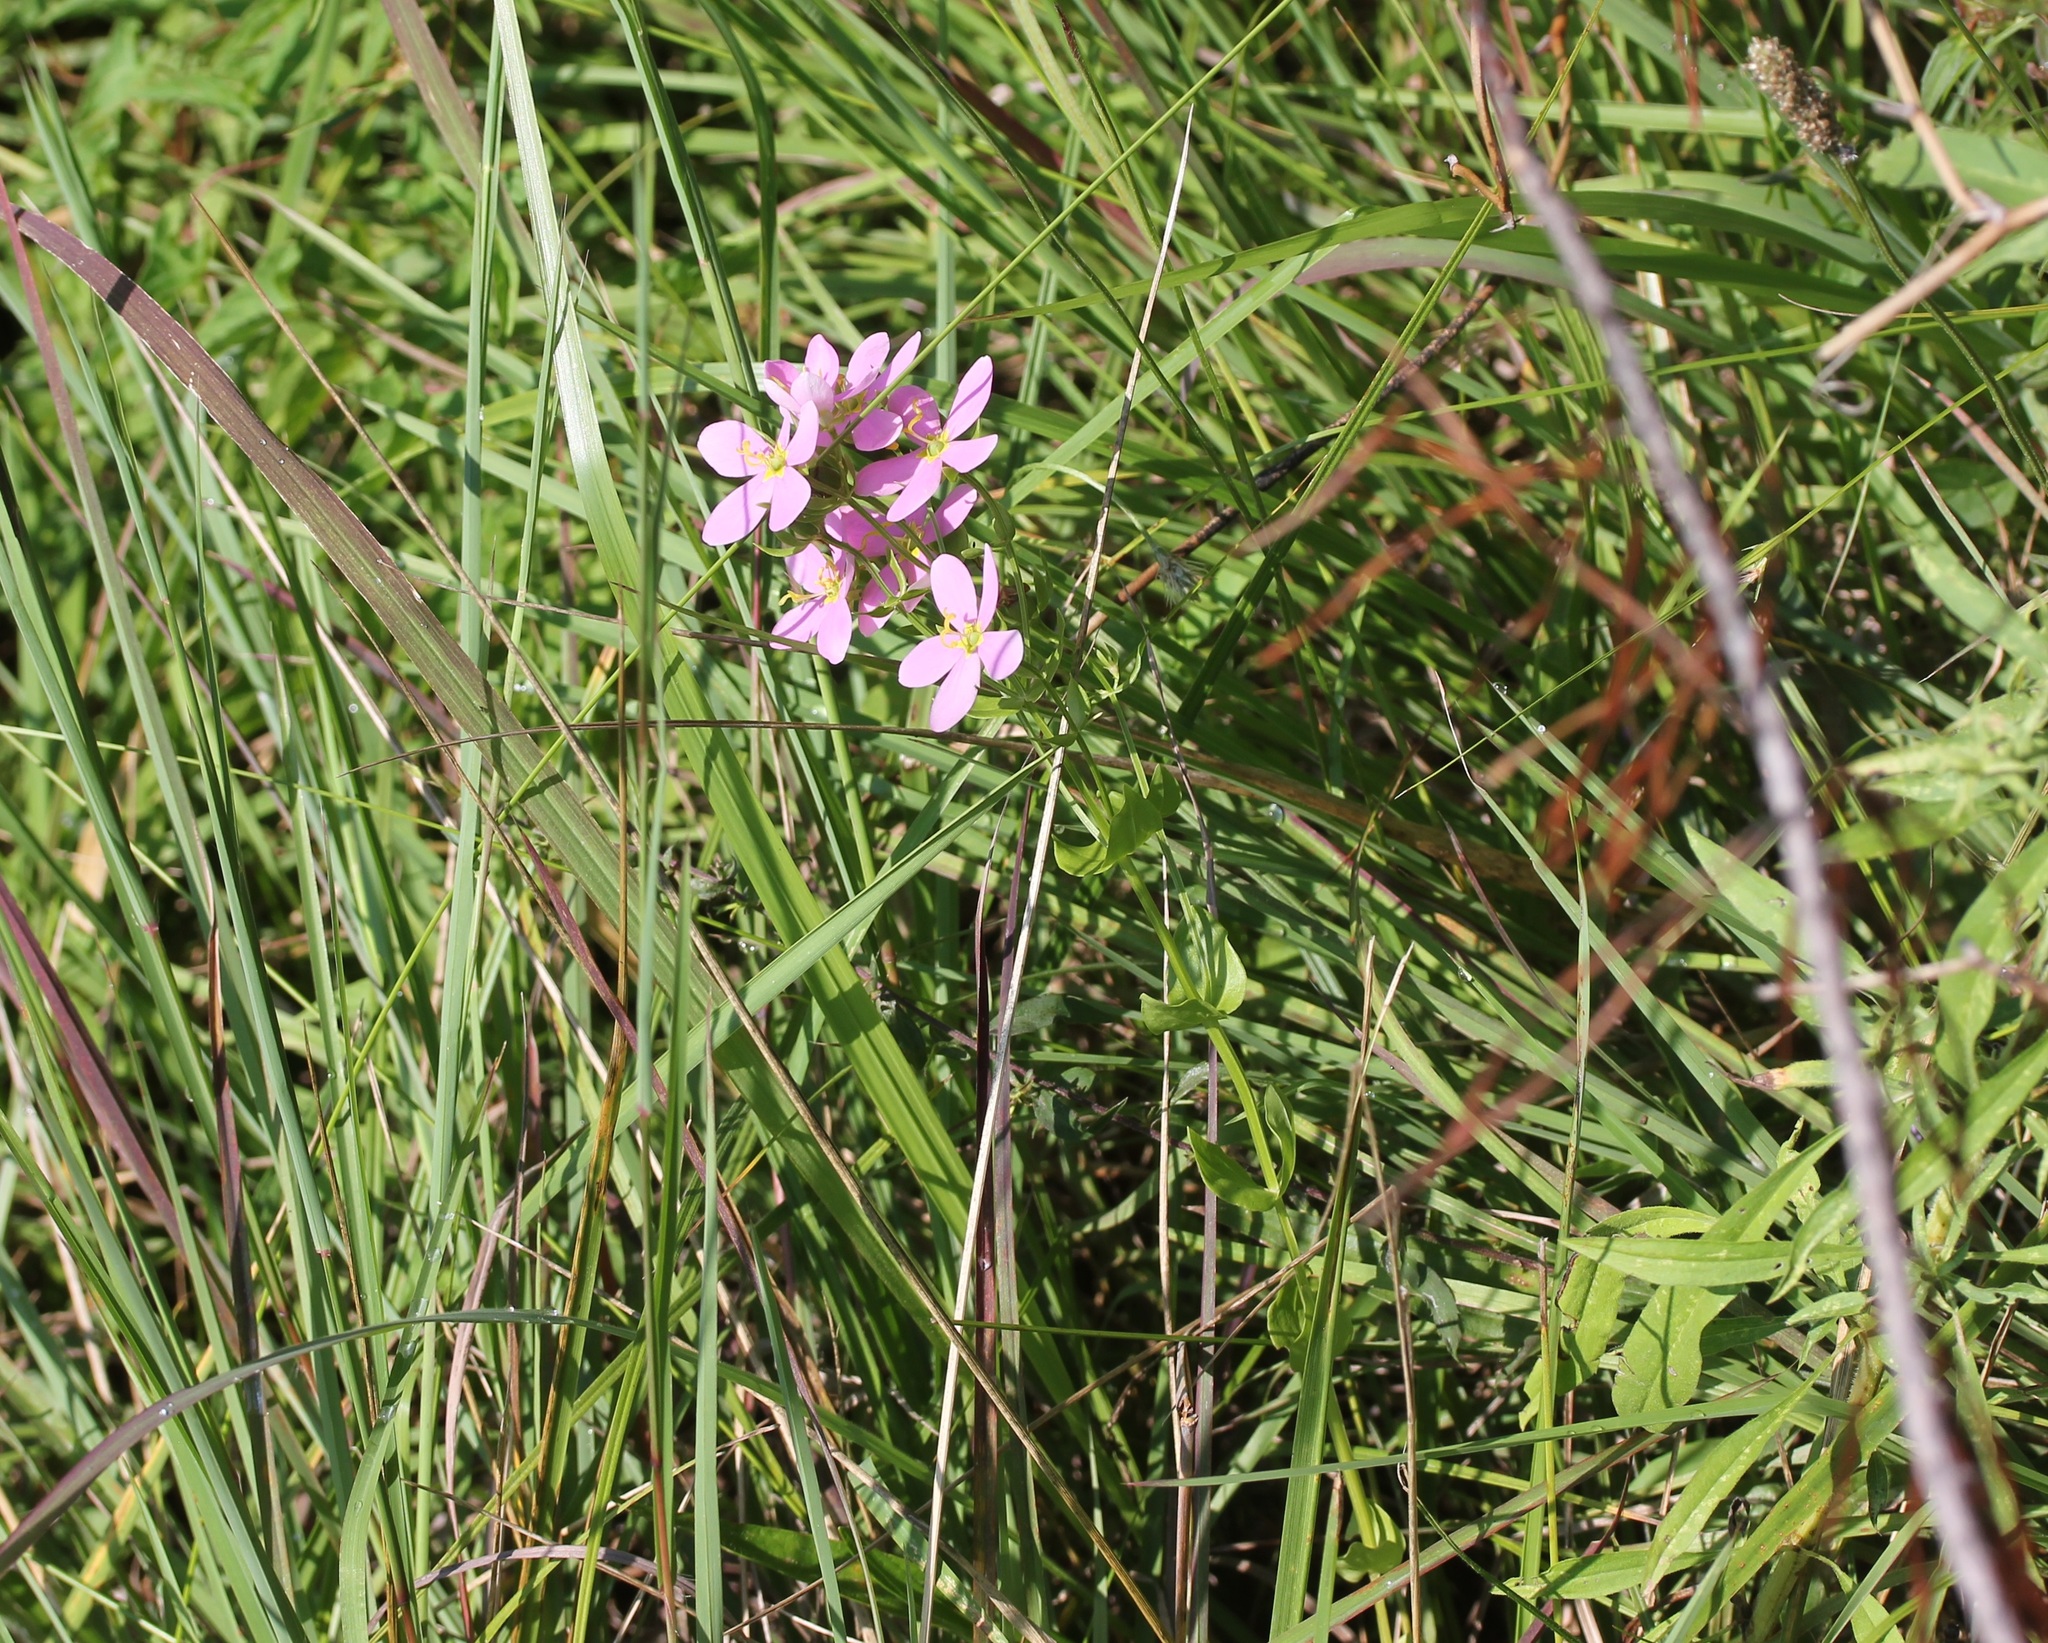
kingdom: Plantae
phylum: Tracheophyta
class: Magnoliopsida
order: Gentianales
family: Gentianaceae
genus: Sabatia
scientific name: Sabatia angularis
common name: Rose-pink
